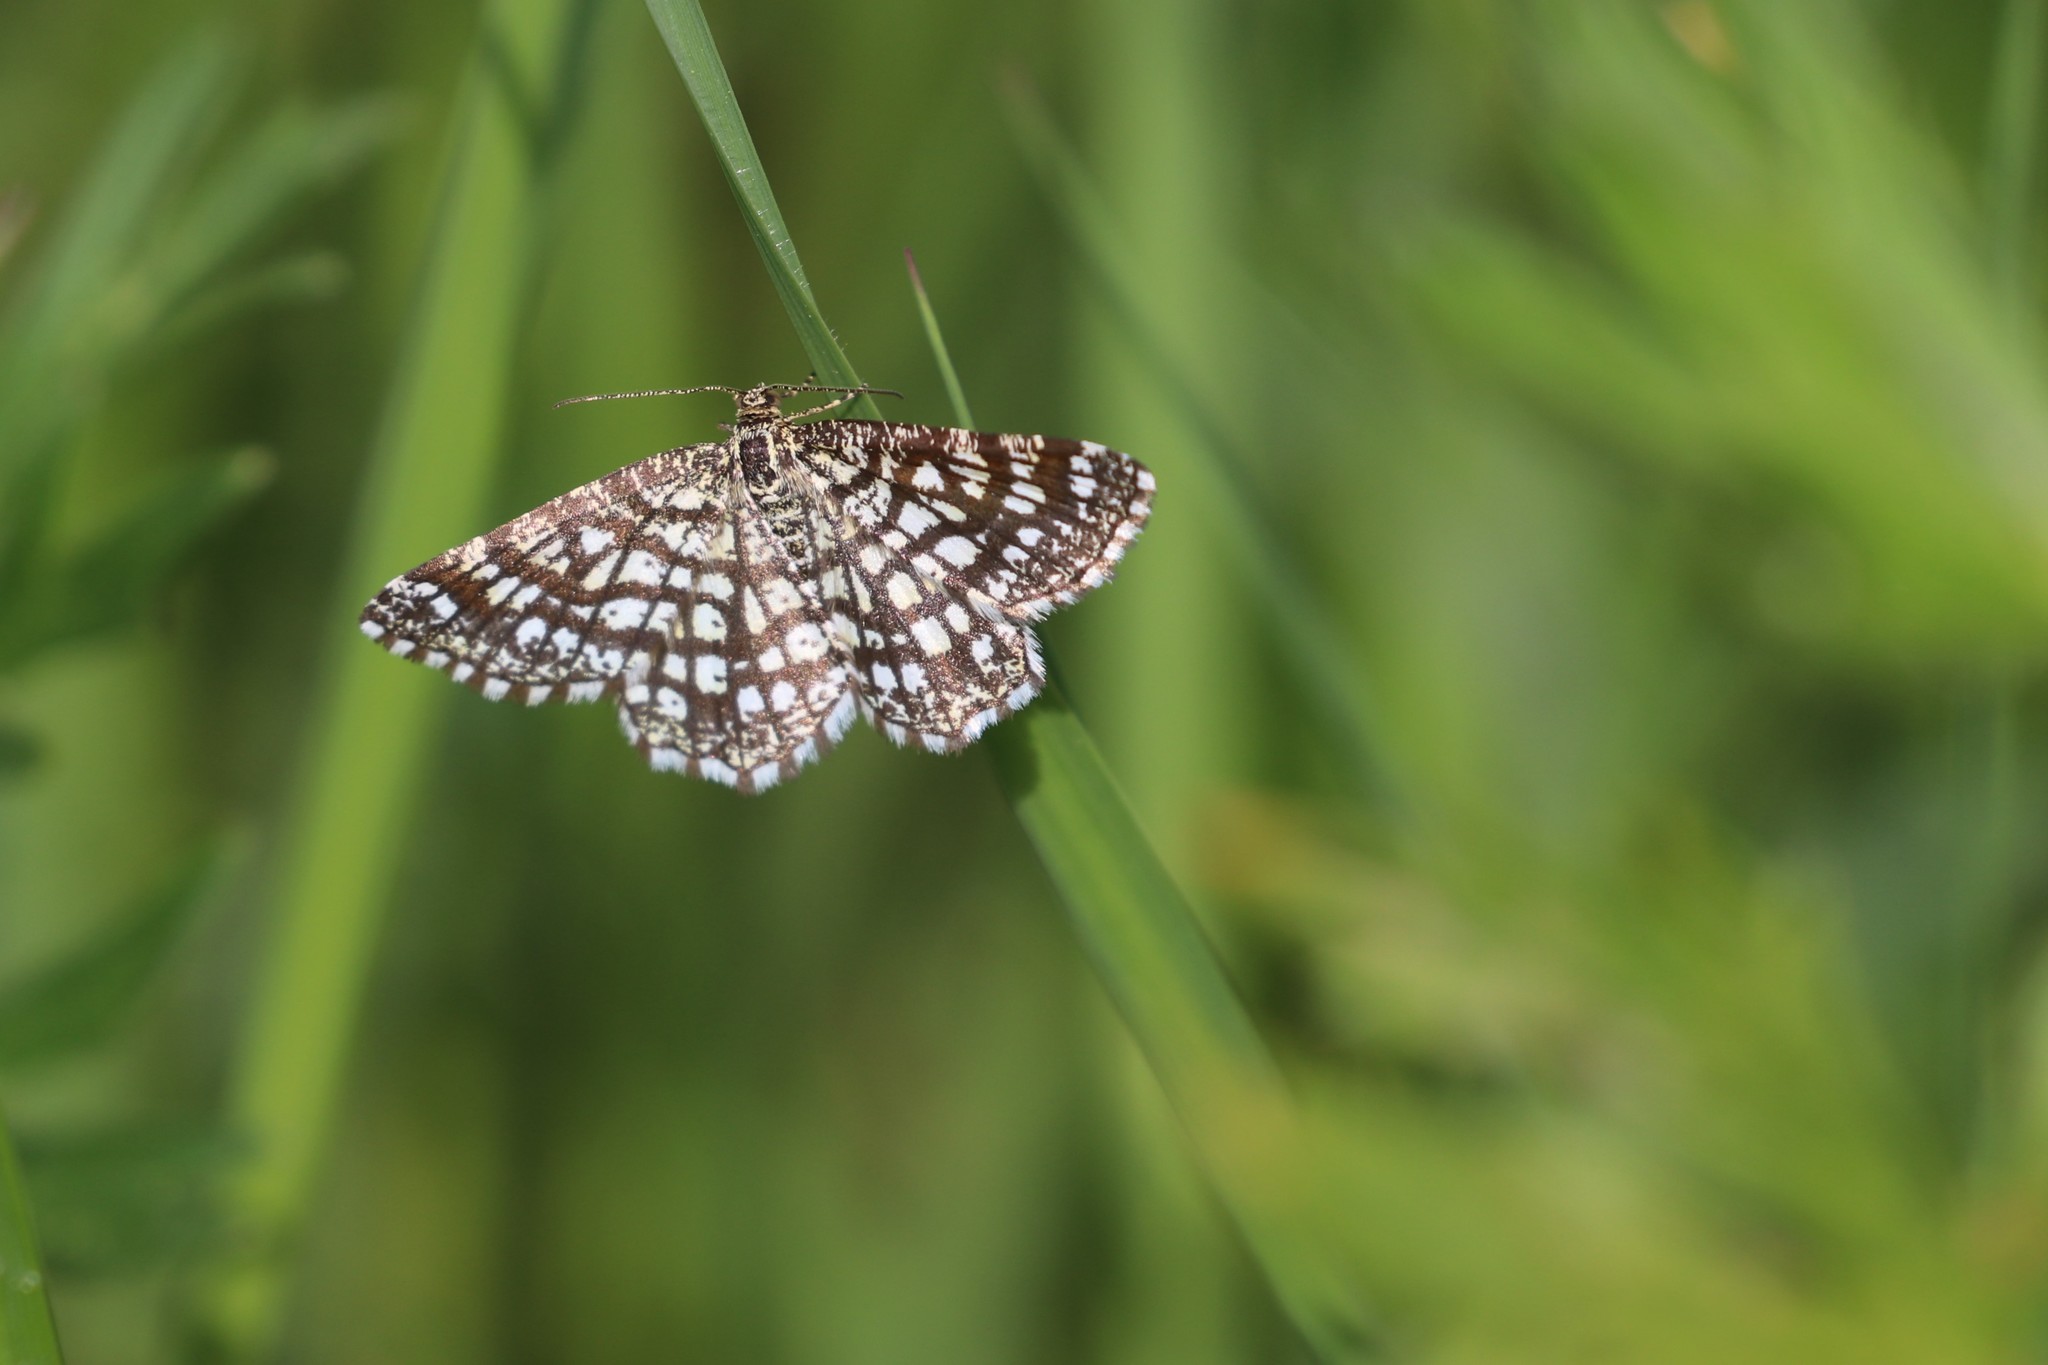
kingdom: Animalia
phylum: Arthropoda
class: Insecta
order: Lepidoptera
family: Geometridae
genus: Chiasmia
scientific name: Chiasmia clathrata
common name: Latticed heath
